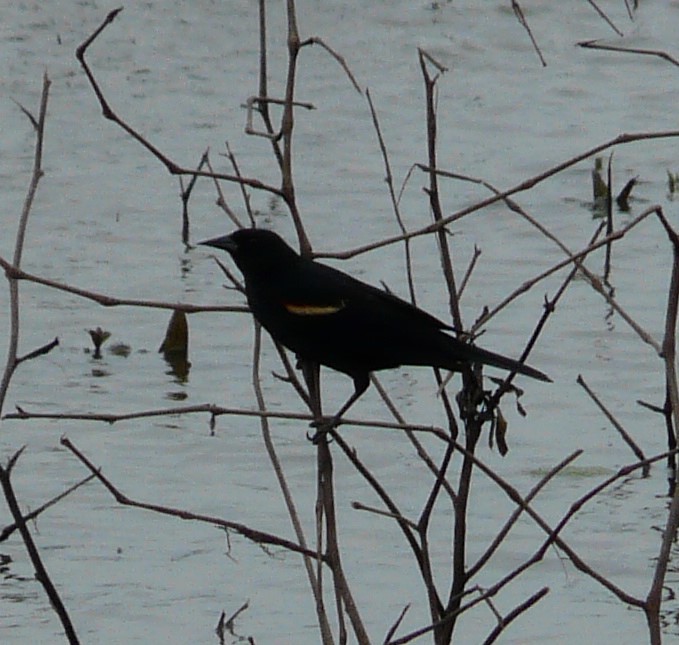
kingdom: Animalia
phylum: Chordata
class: Aves
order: Passeriformes
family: Icteridae
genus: Agelaius
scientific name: Agelaius phoeniceus
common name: Red-winged blackbird
